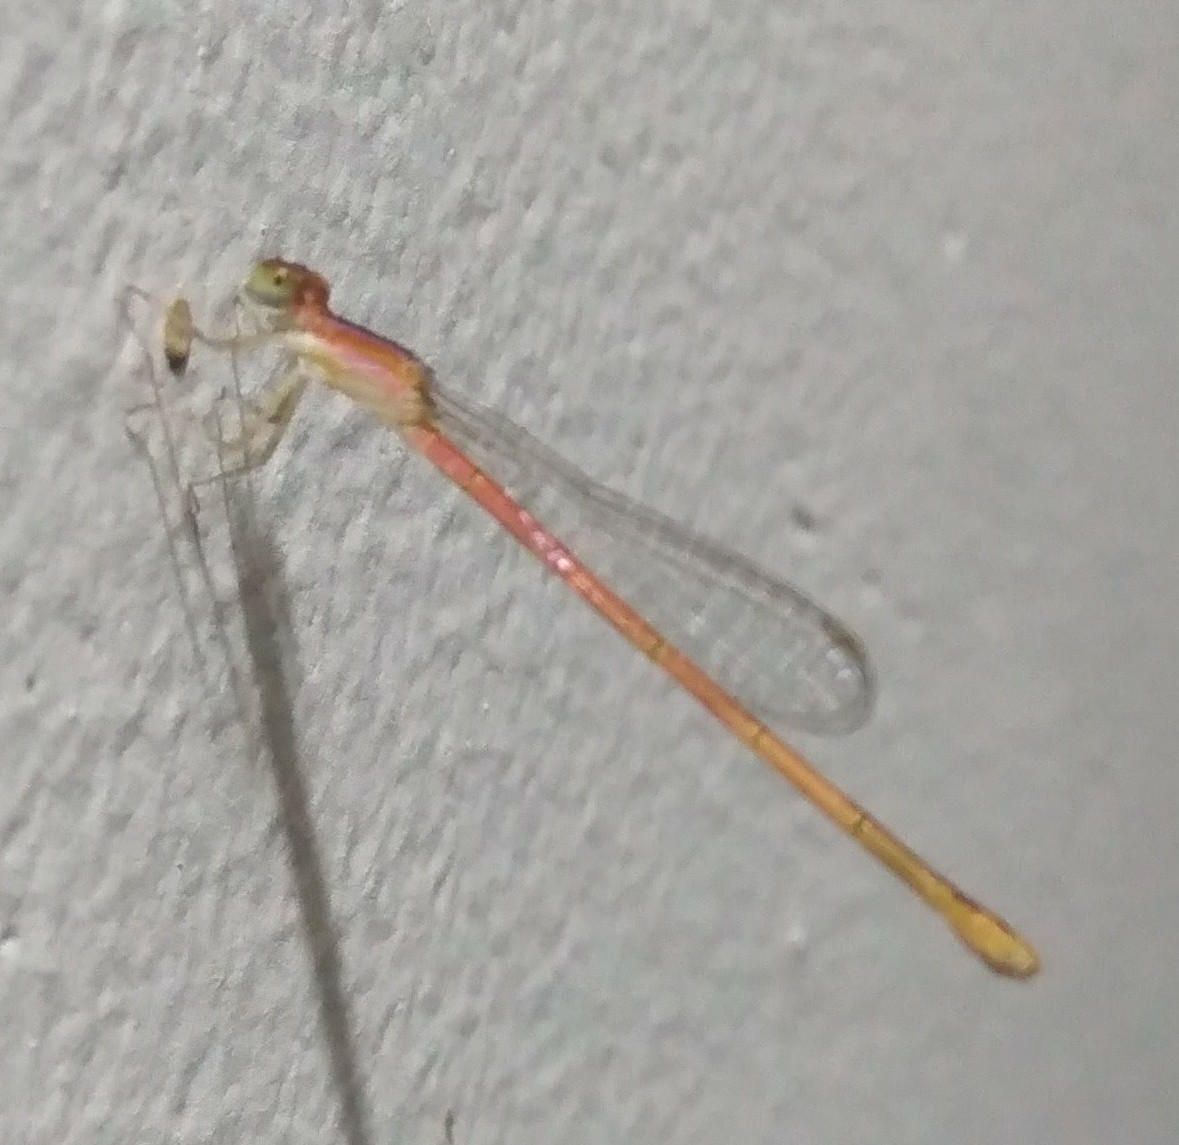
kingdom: Animalia
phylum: Arthropoda
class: Insecta
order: Odonata
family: Coenagrionidae
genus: Agriocnemis
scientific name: Agriocnemis pygmaea
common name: Pygmy wisp
